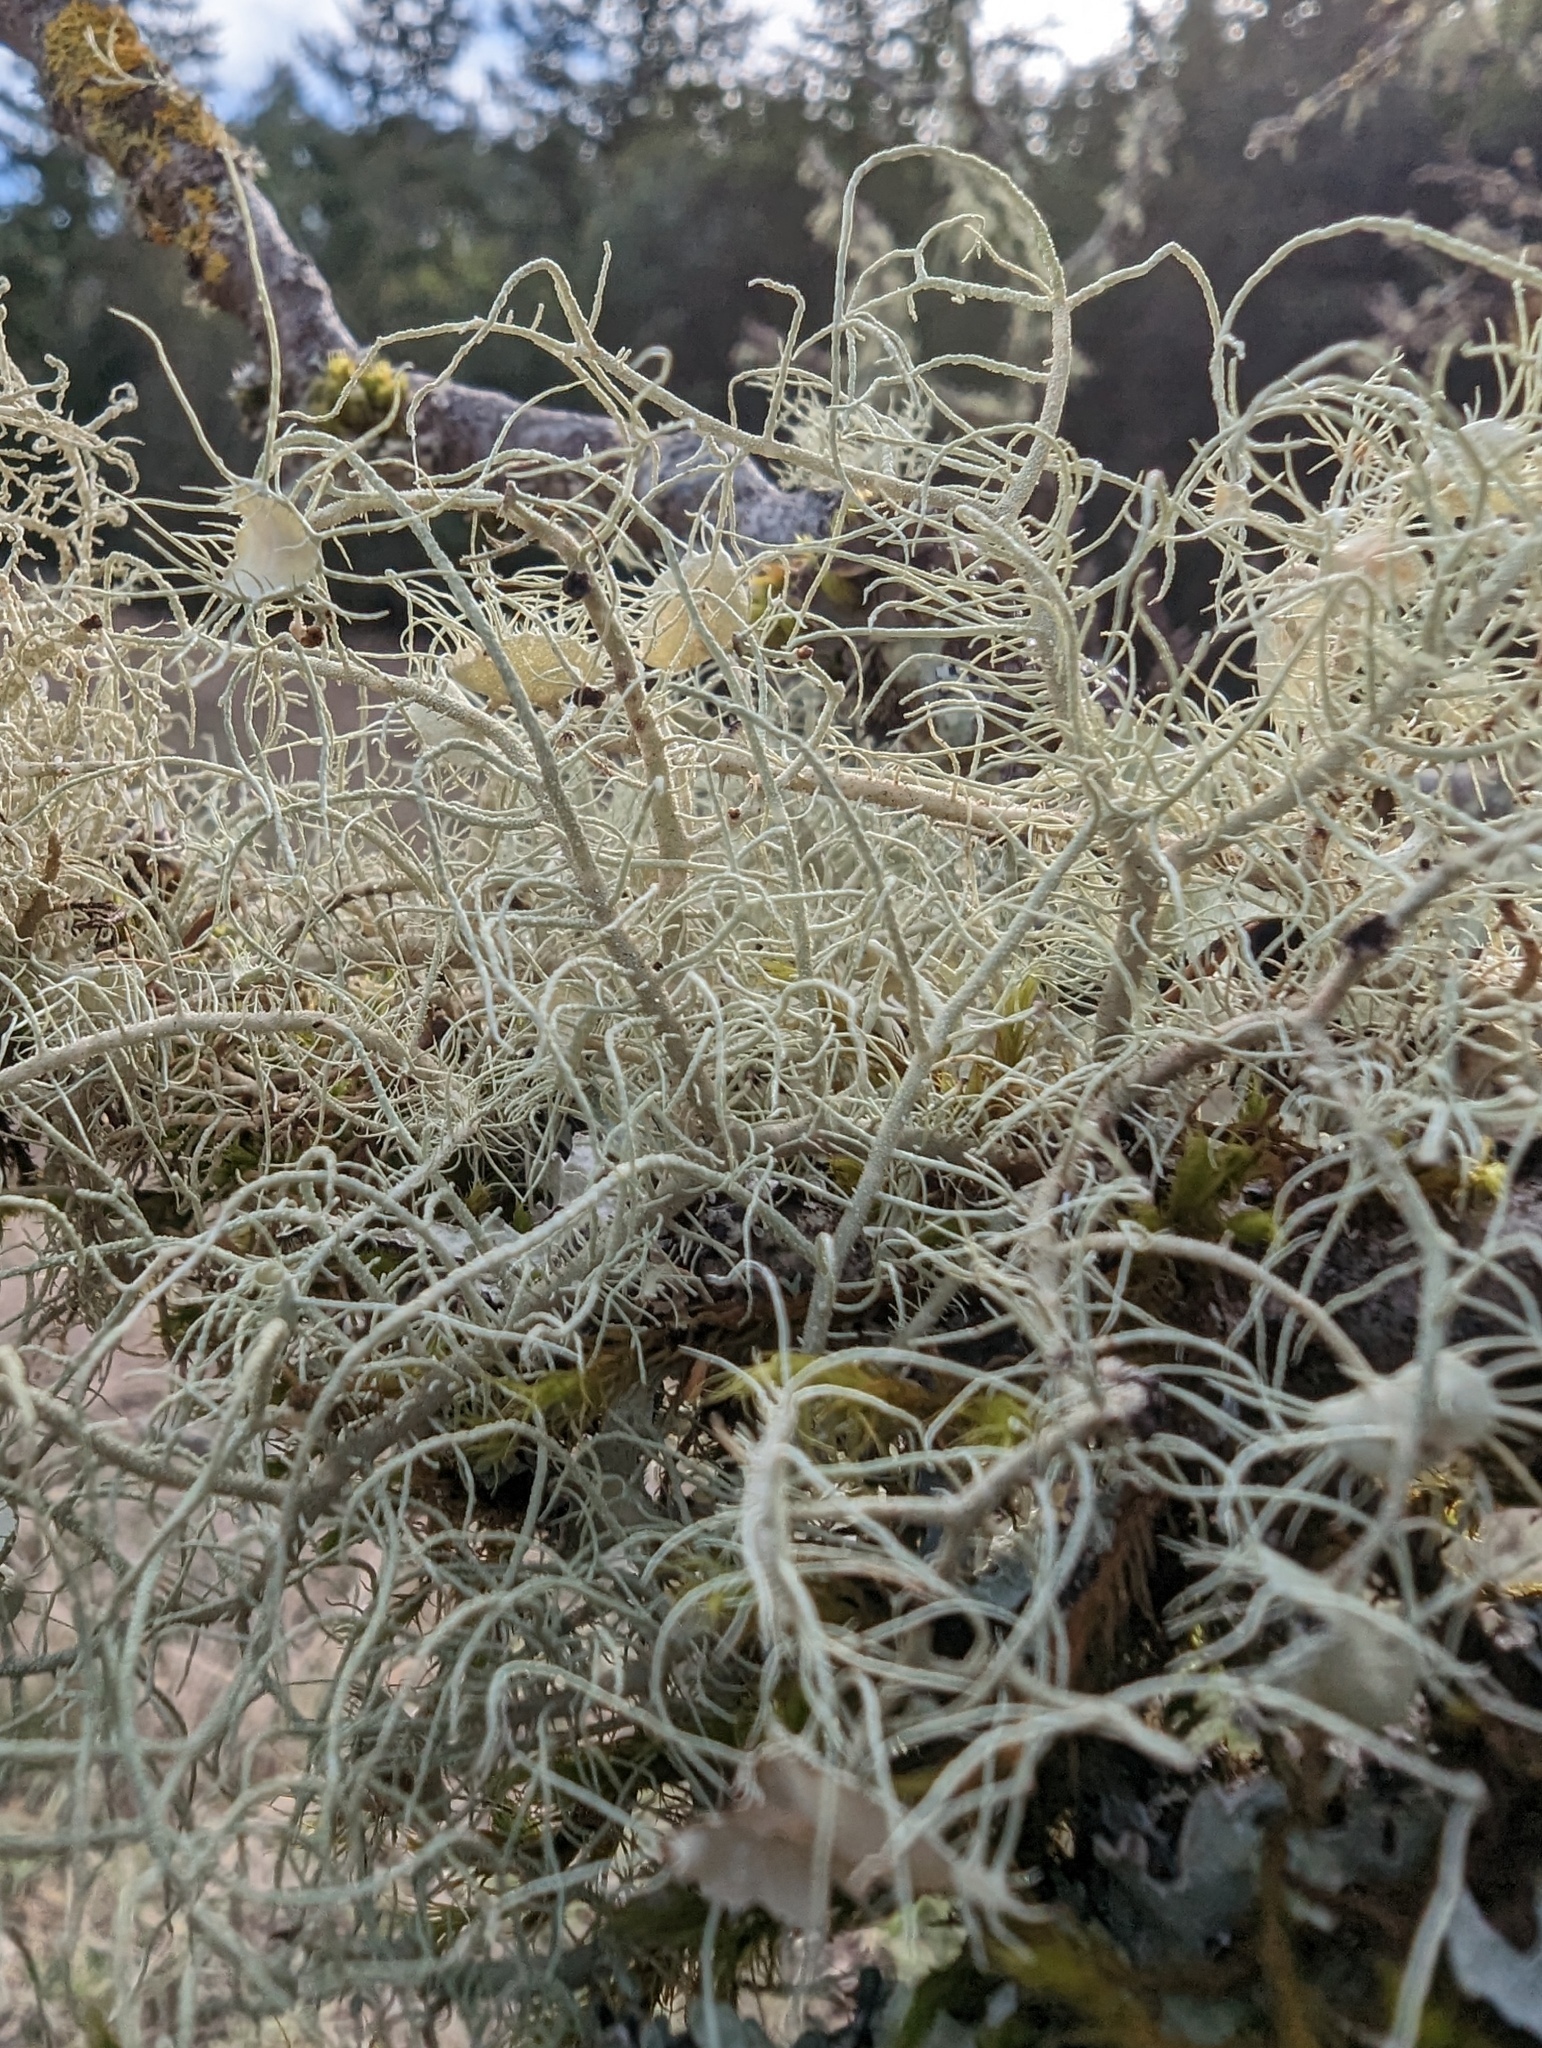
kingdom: Fungi
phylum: Ascomycota
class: Lecanoromycetes
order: Lecanorales
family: Parmeliaceae
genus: Usnea
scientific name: Usnea intermedia
